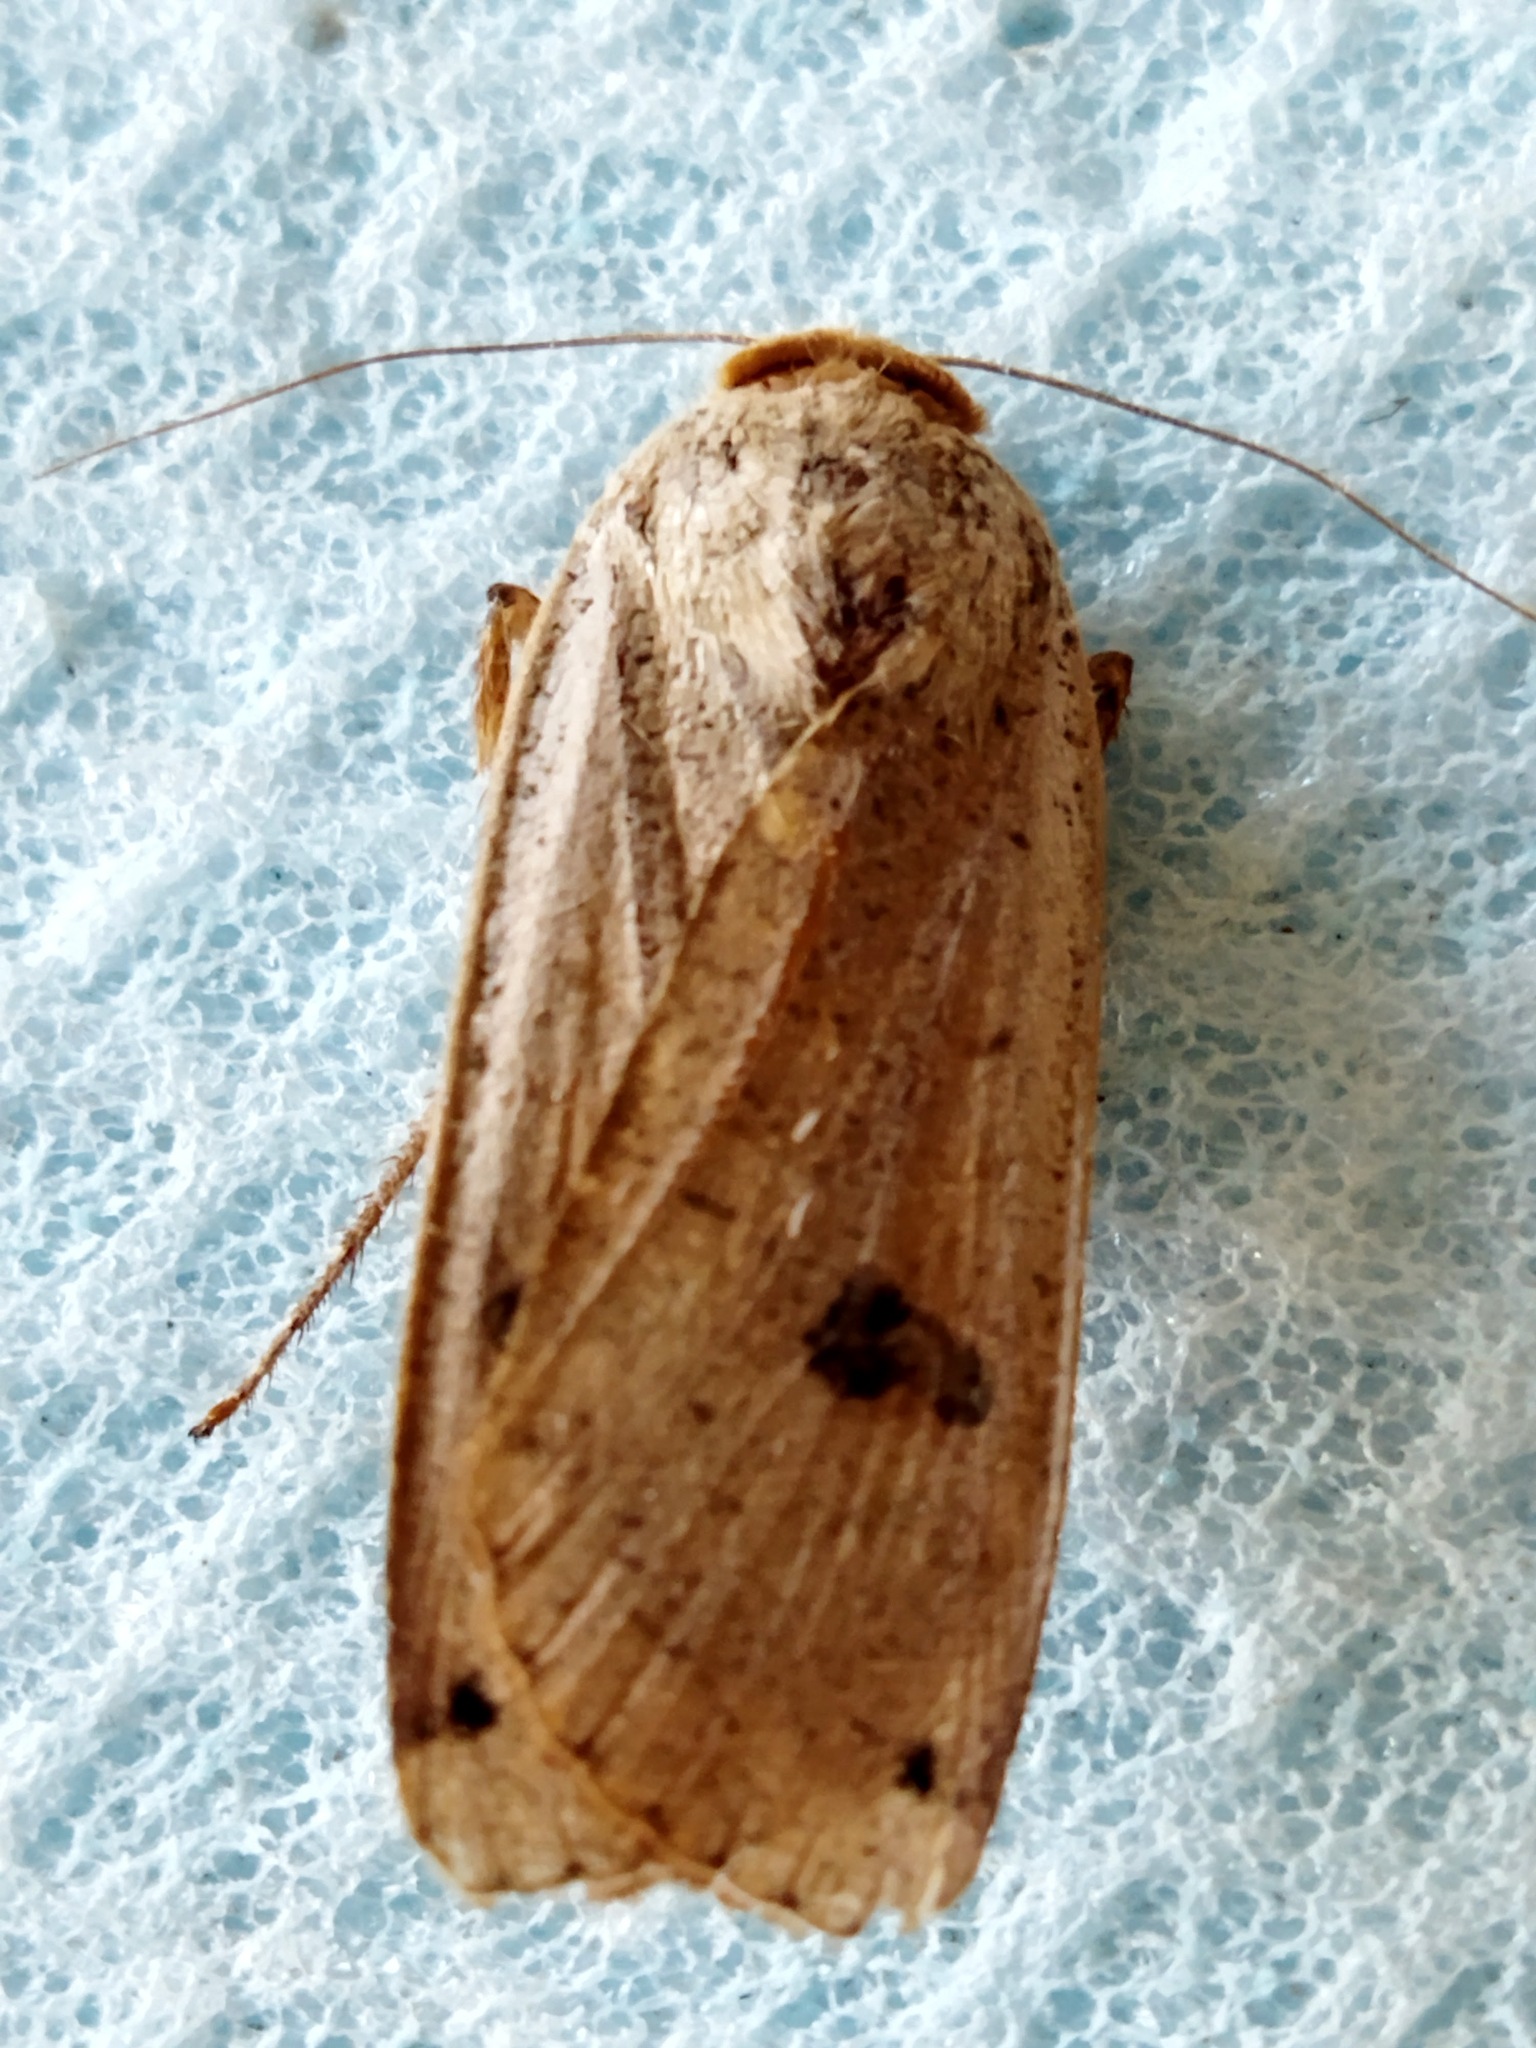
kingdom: Animalia
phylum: Arthropoda
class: Insecta
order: Lepidoptera
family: Noctuidae
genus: Noctua
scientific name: Noctua pronuba
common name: Large yellow underwing
